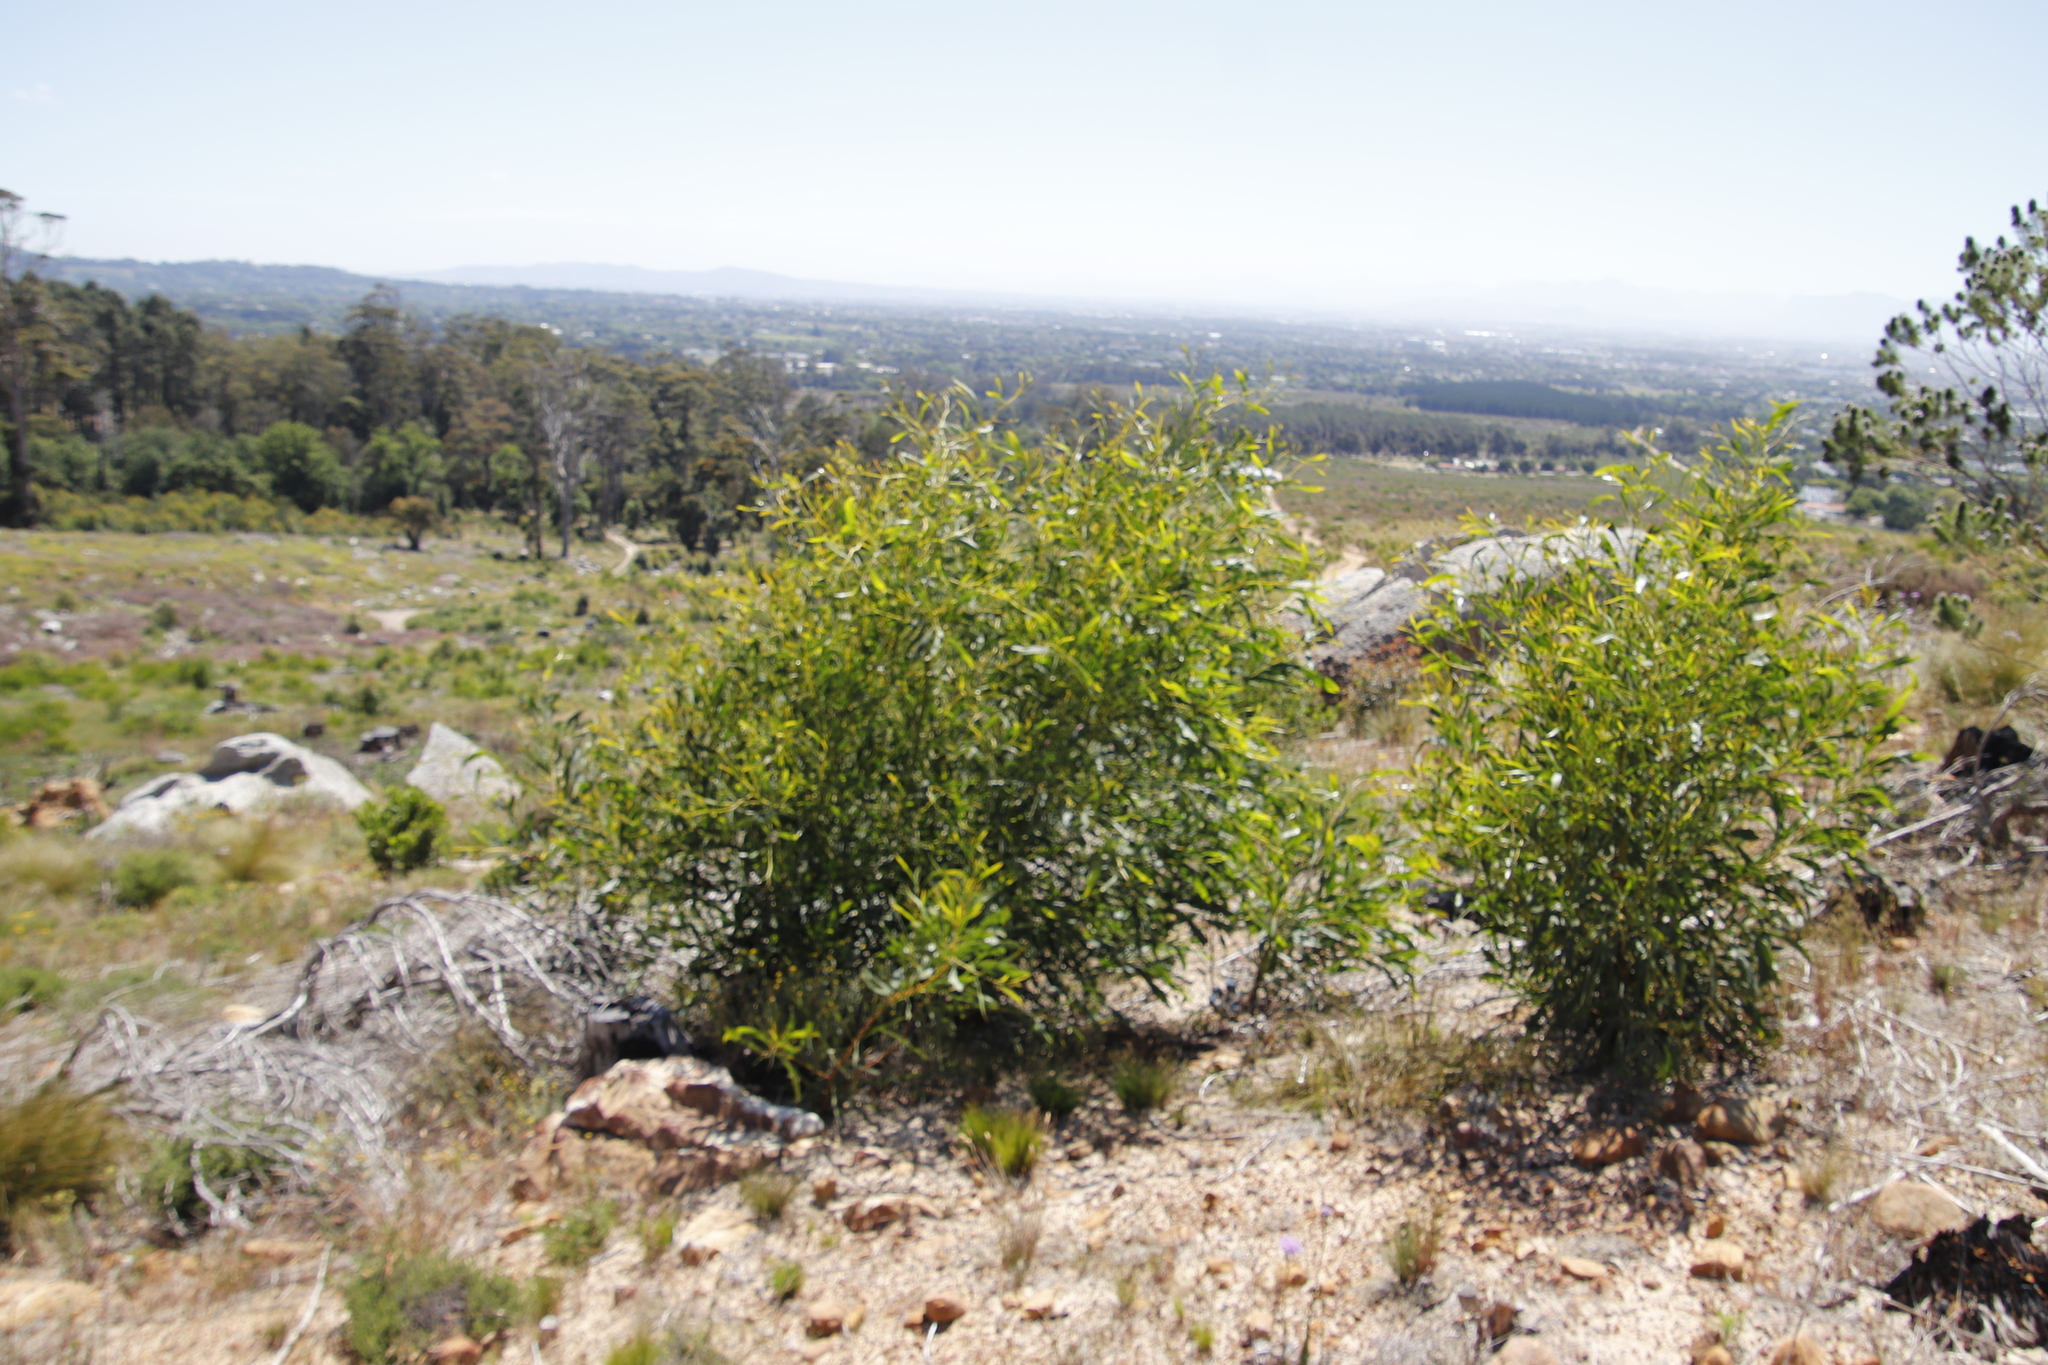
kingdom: Plantae
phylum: Tracheophyta
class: Magnoliopsida
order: Fabales
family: Fabaceae
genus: Acacia
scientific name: Acacia saligna
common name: Orange wattle
